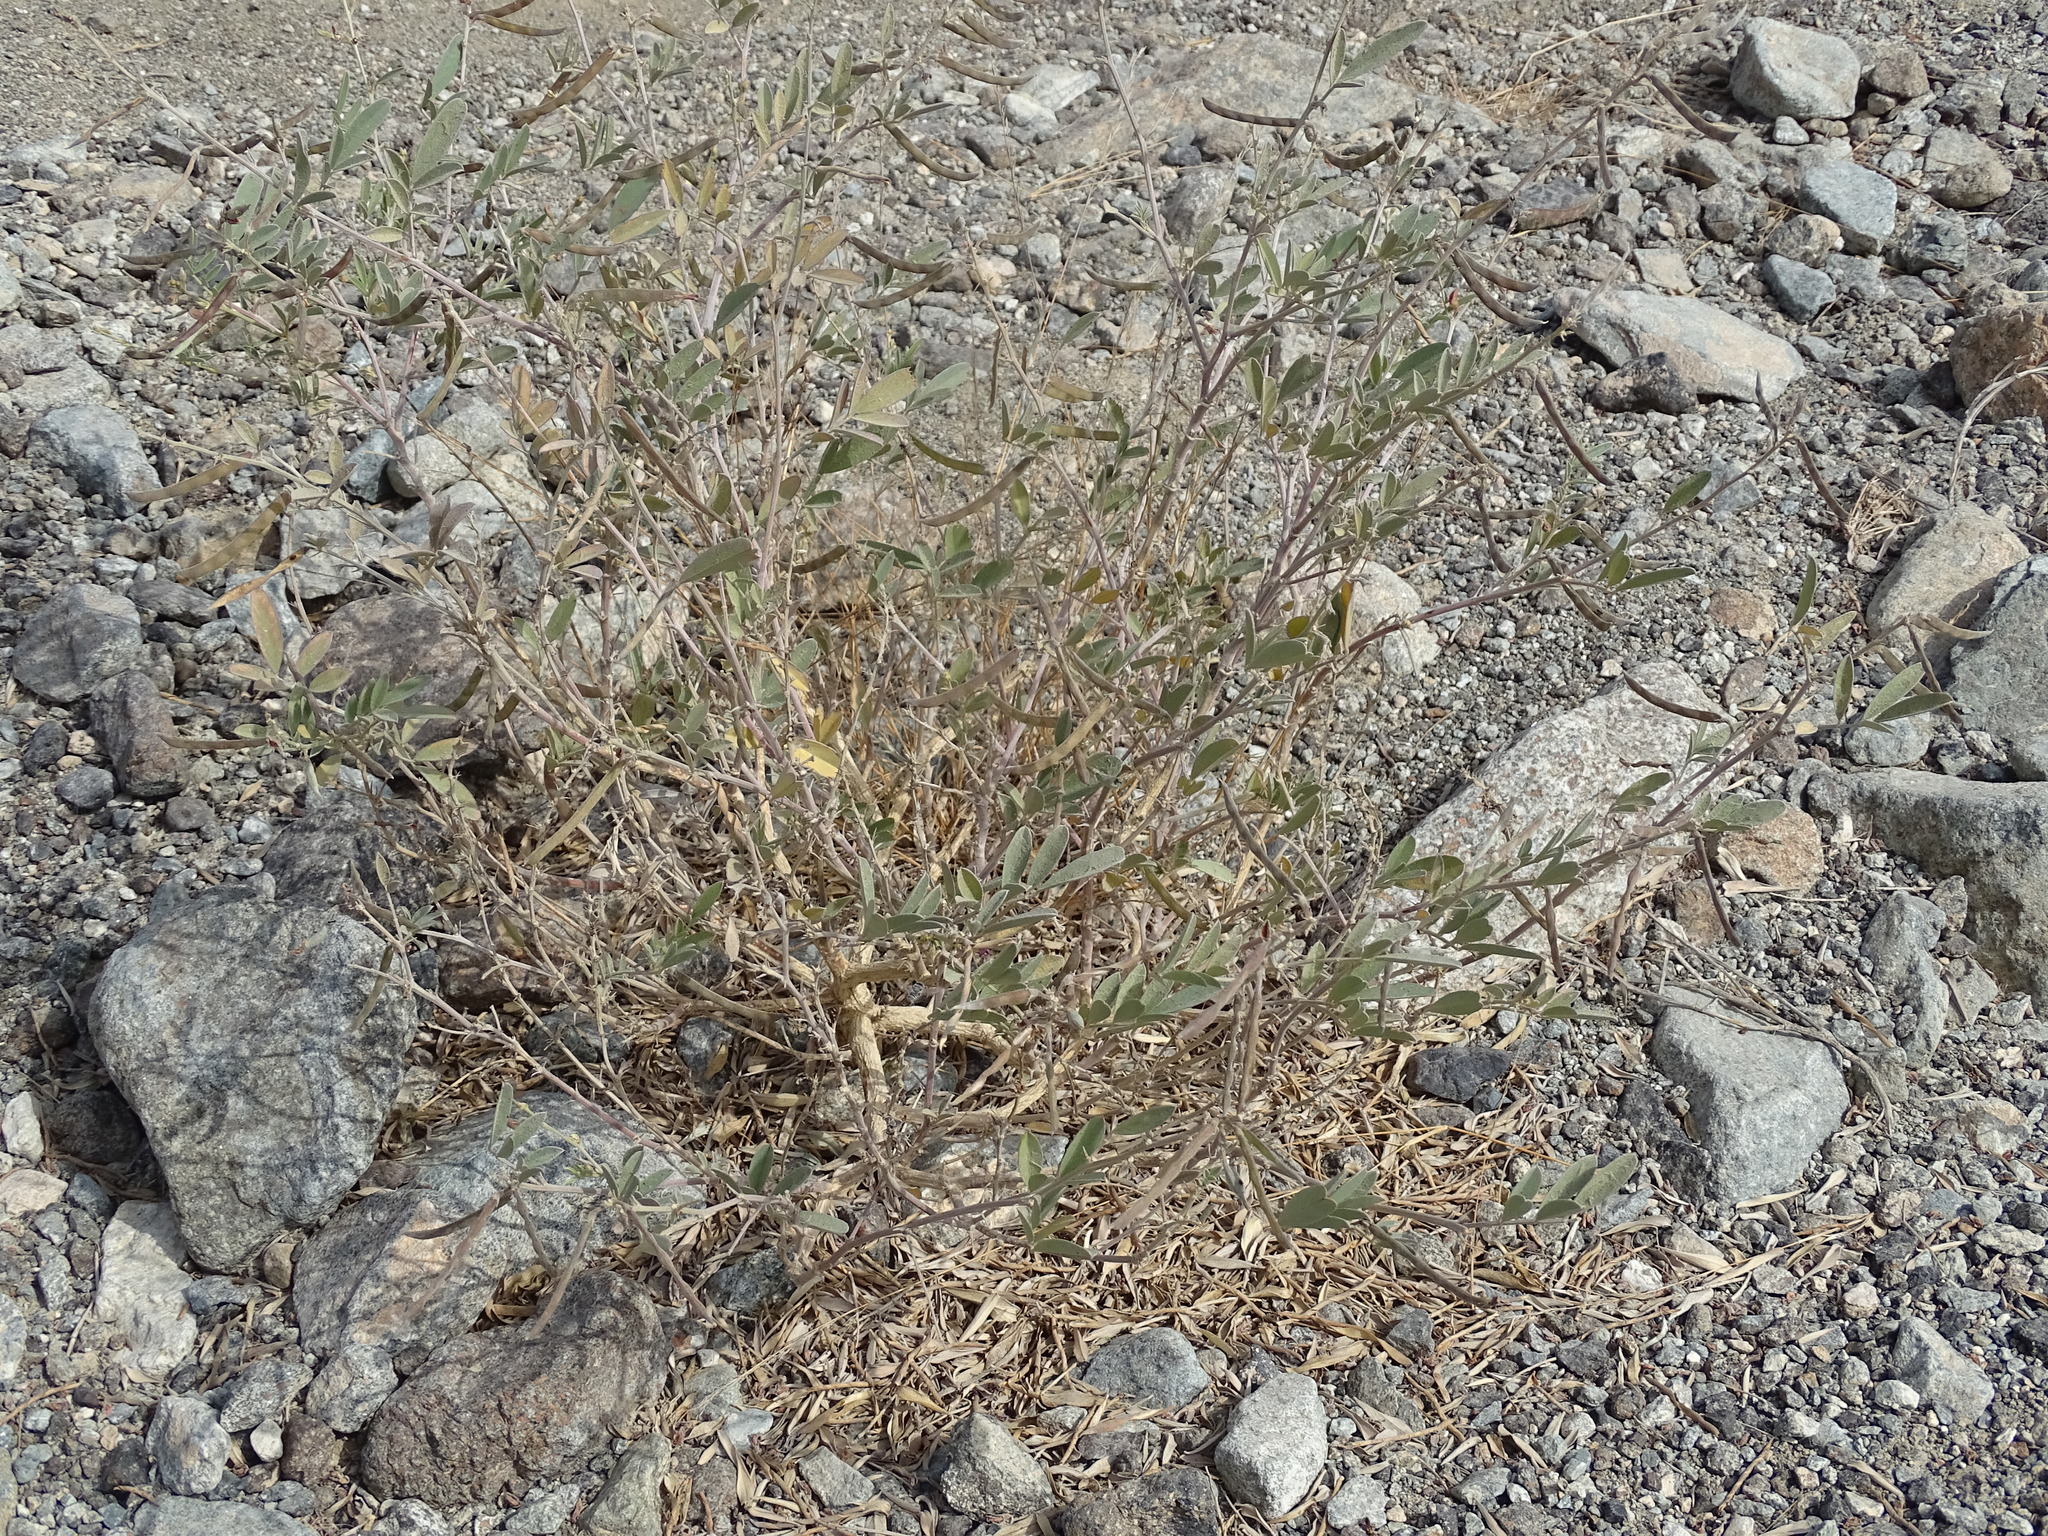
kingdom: Plantae
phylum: Tracheophyta
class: Magnoliopsida
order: Fabales
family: Fabaceae
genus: Tephrosia
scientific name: Tephrosia
